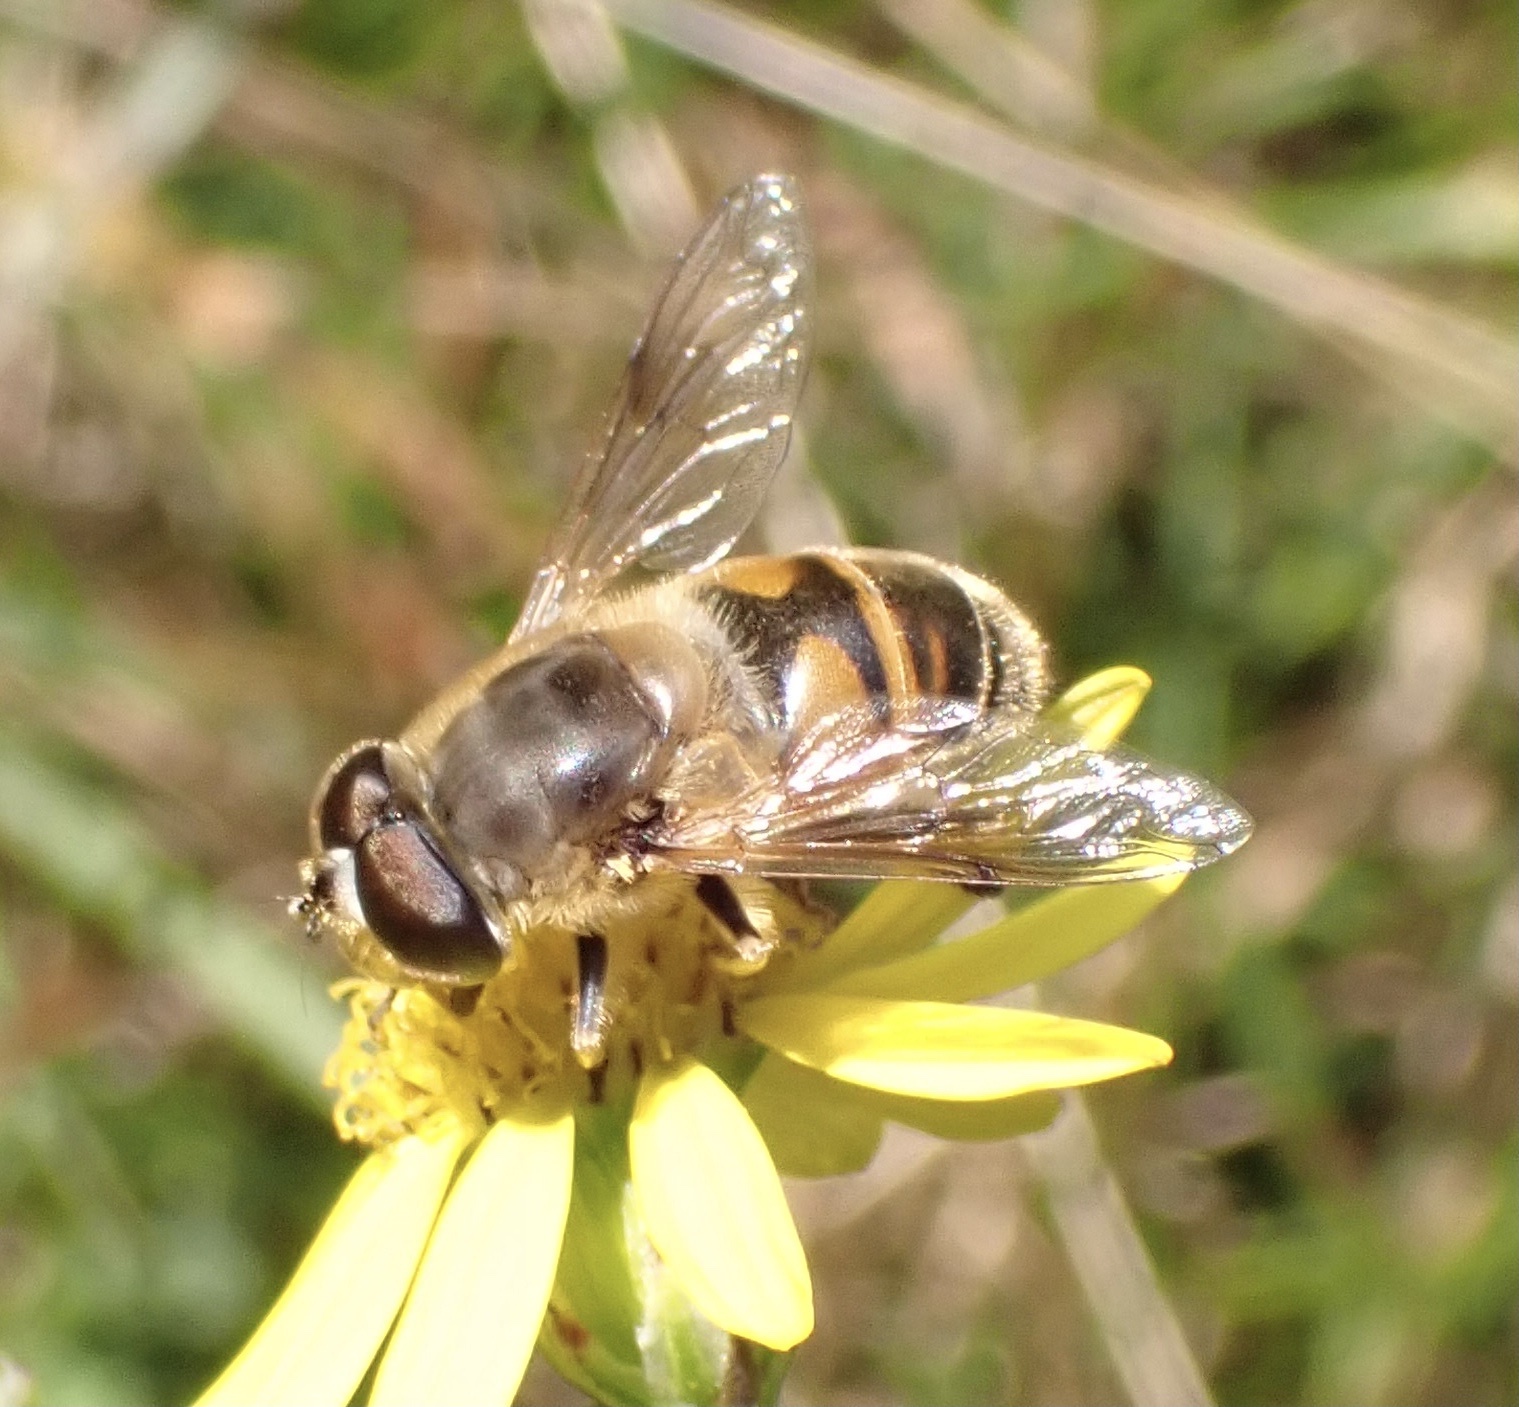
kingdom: Animalia
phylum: Arthropoda
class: Insecta
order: Diptera
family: Syrphidae
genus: Eristalis
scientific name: Eristalis tenax
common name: Drone fly
